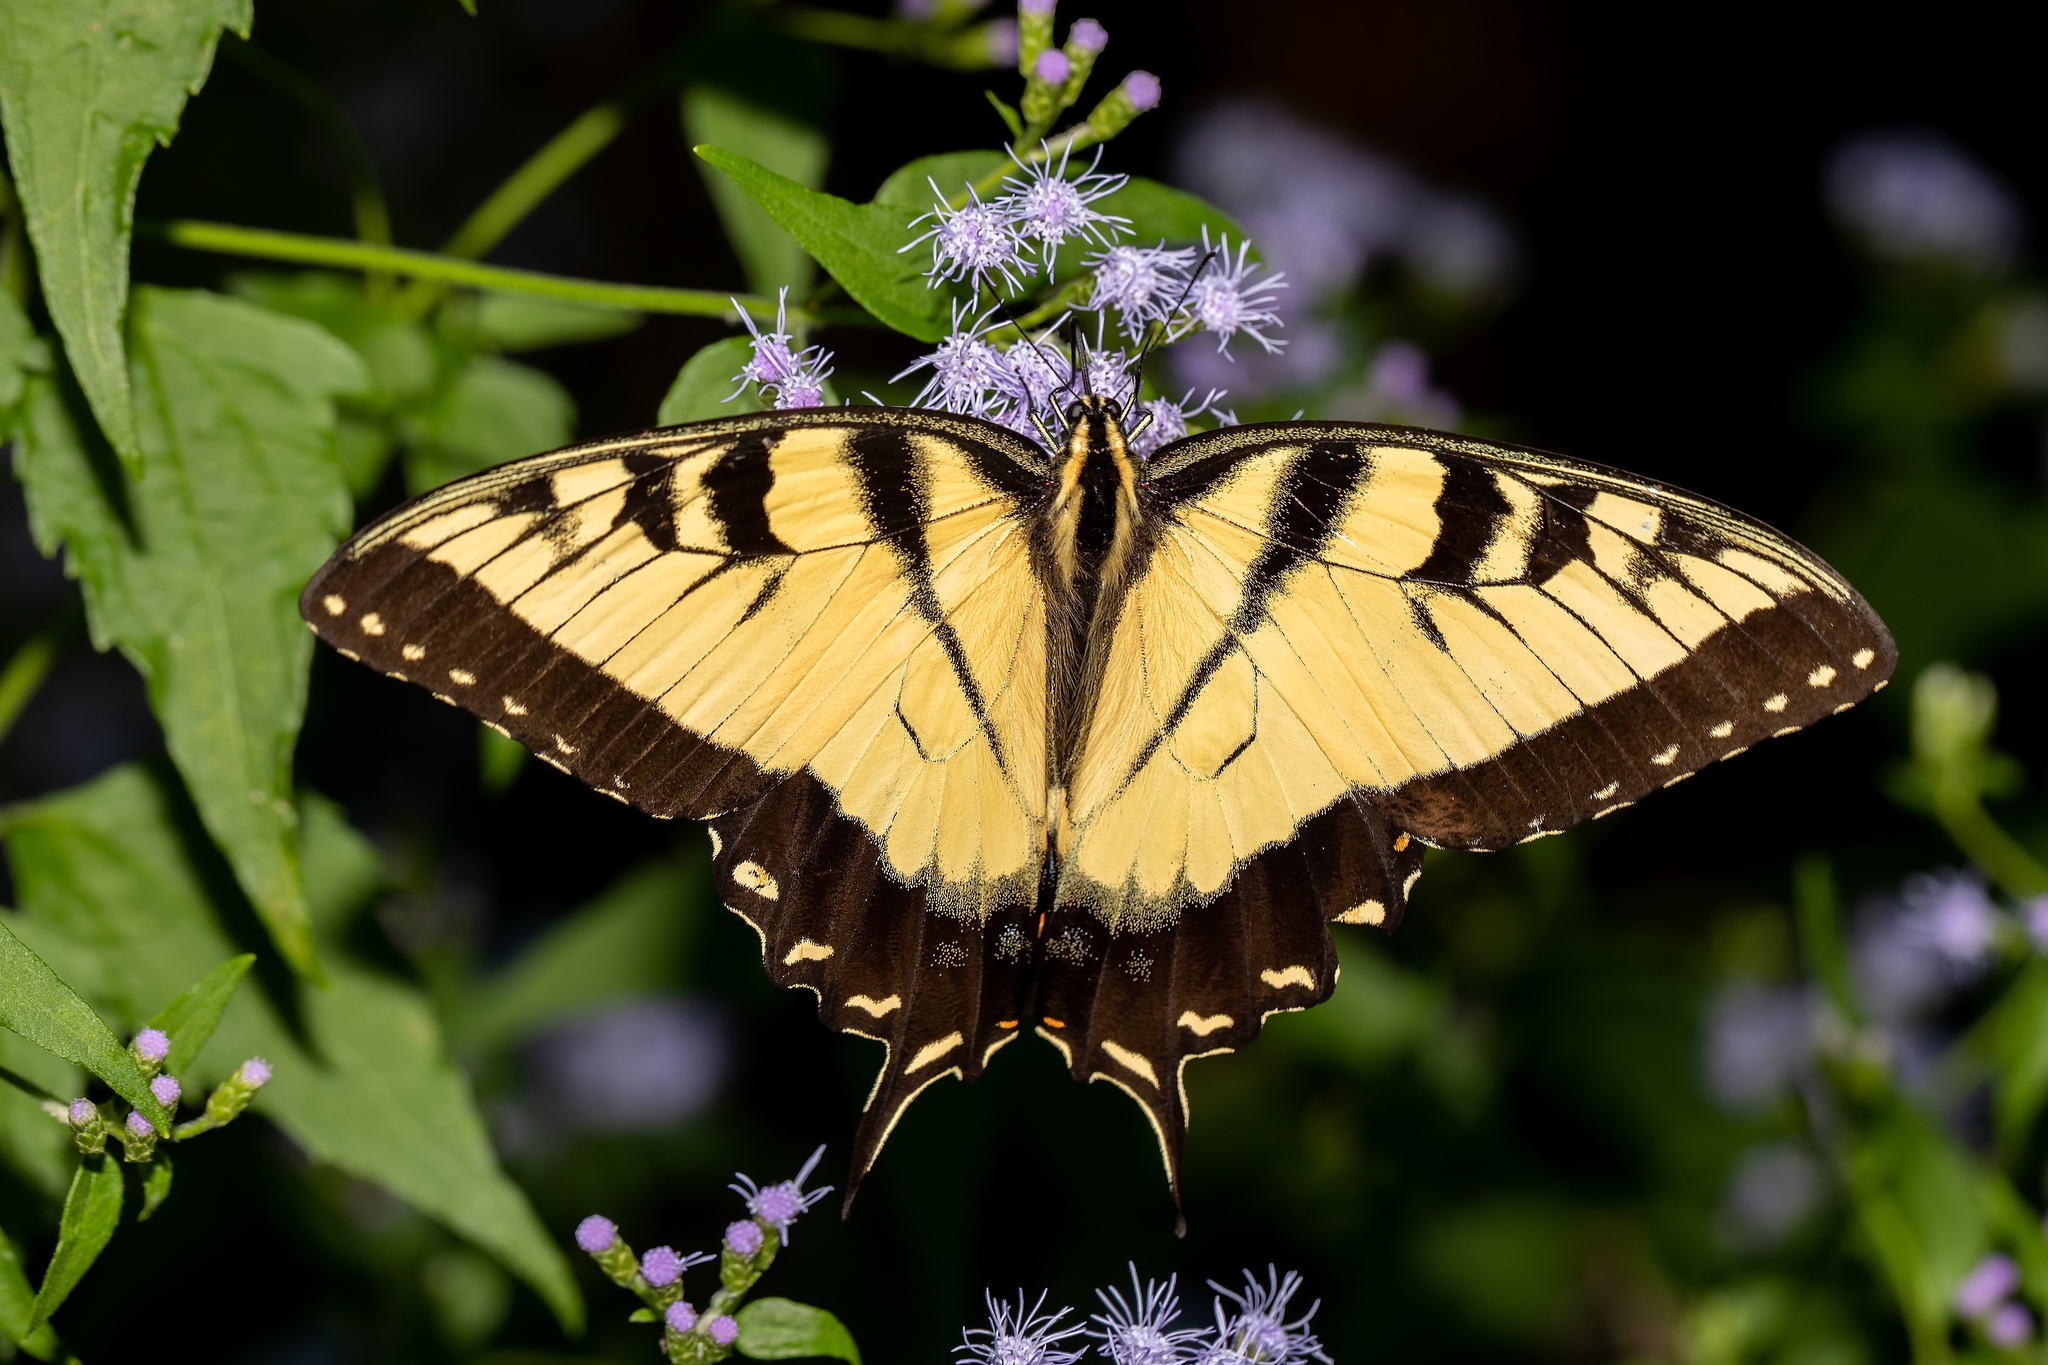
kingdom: Animalia
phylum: Arthropoda
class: Insecta
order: Lepidoptera
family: Papilionidae
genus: Papilio
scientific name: Papilio glaucus
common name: Tiger swallowtail
